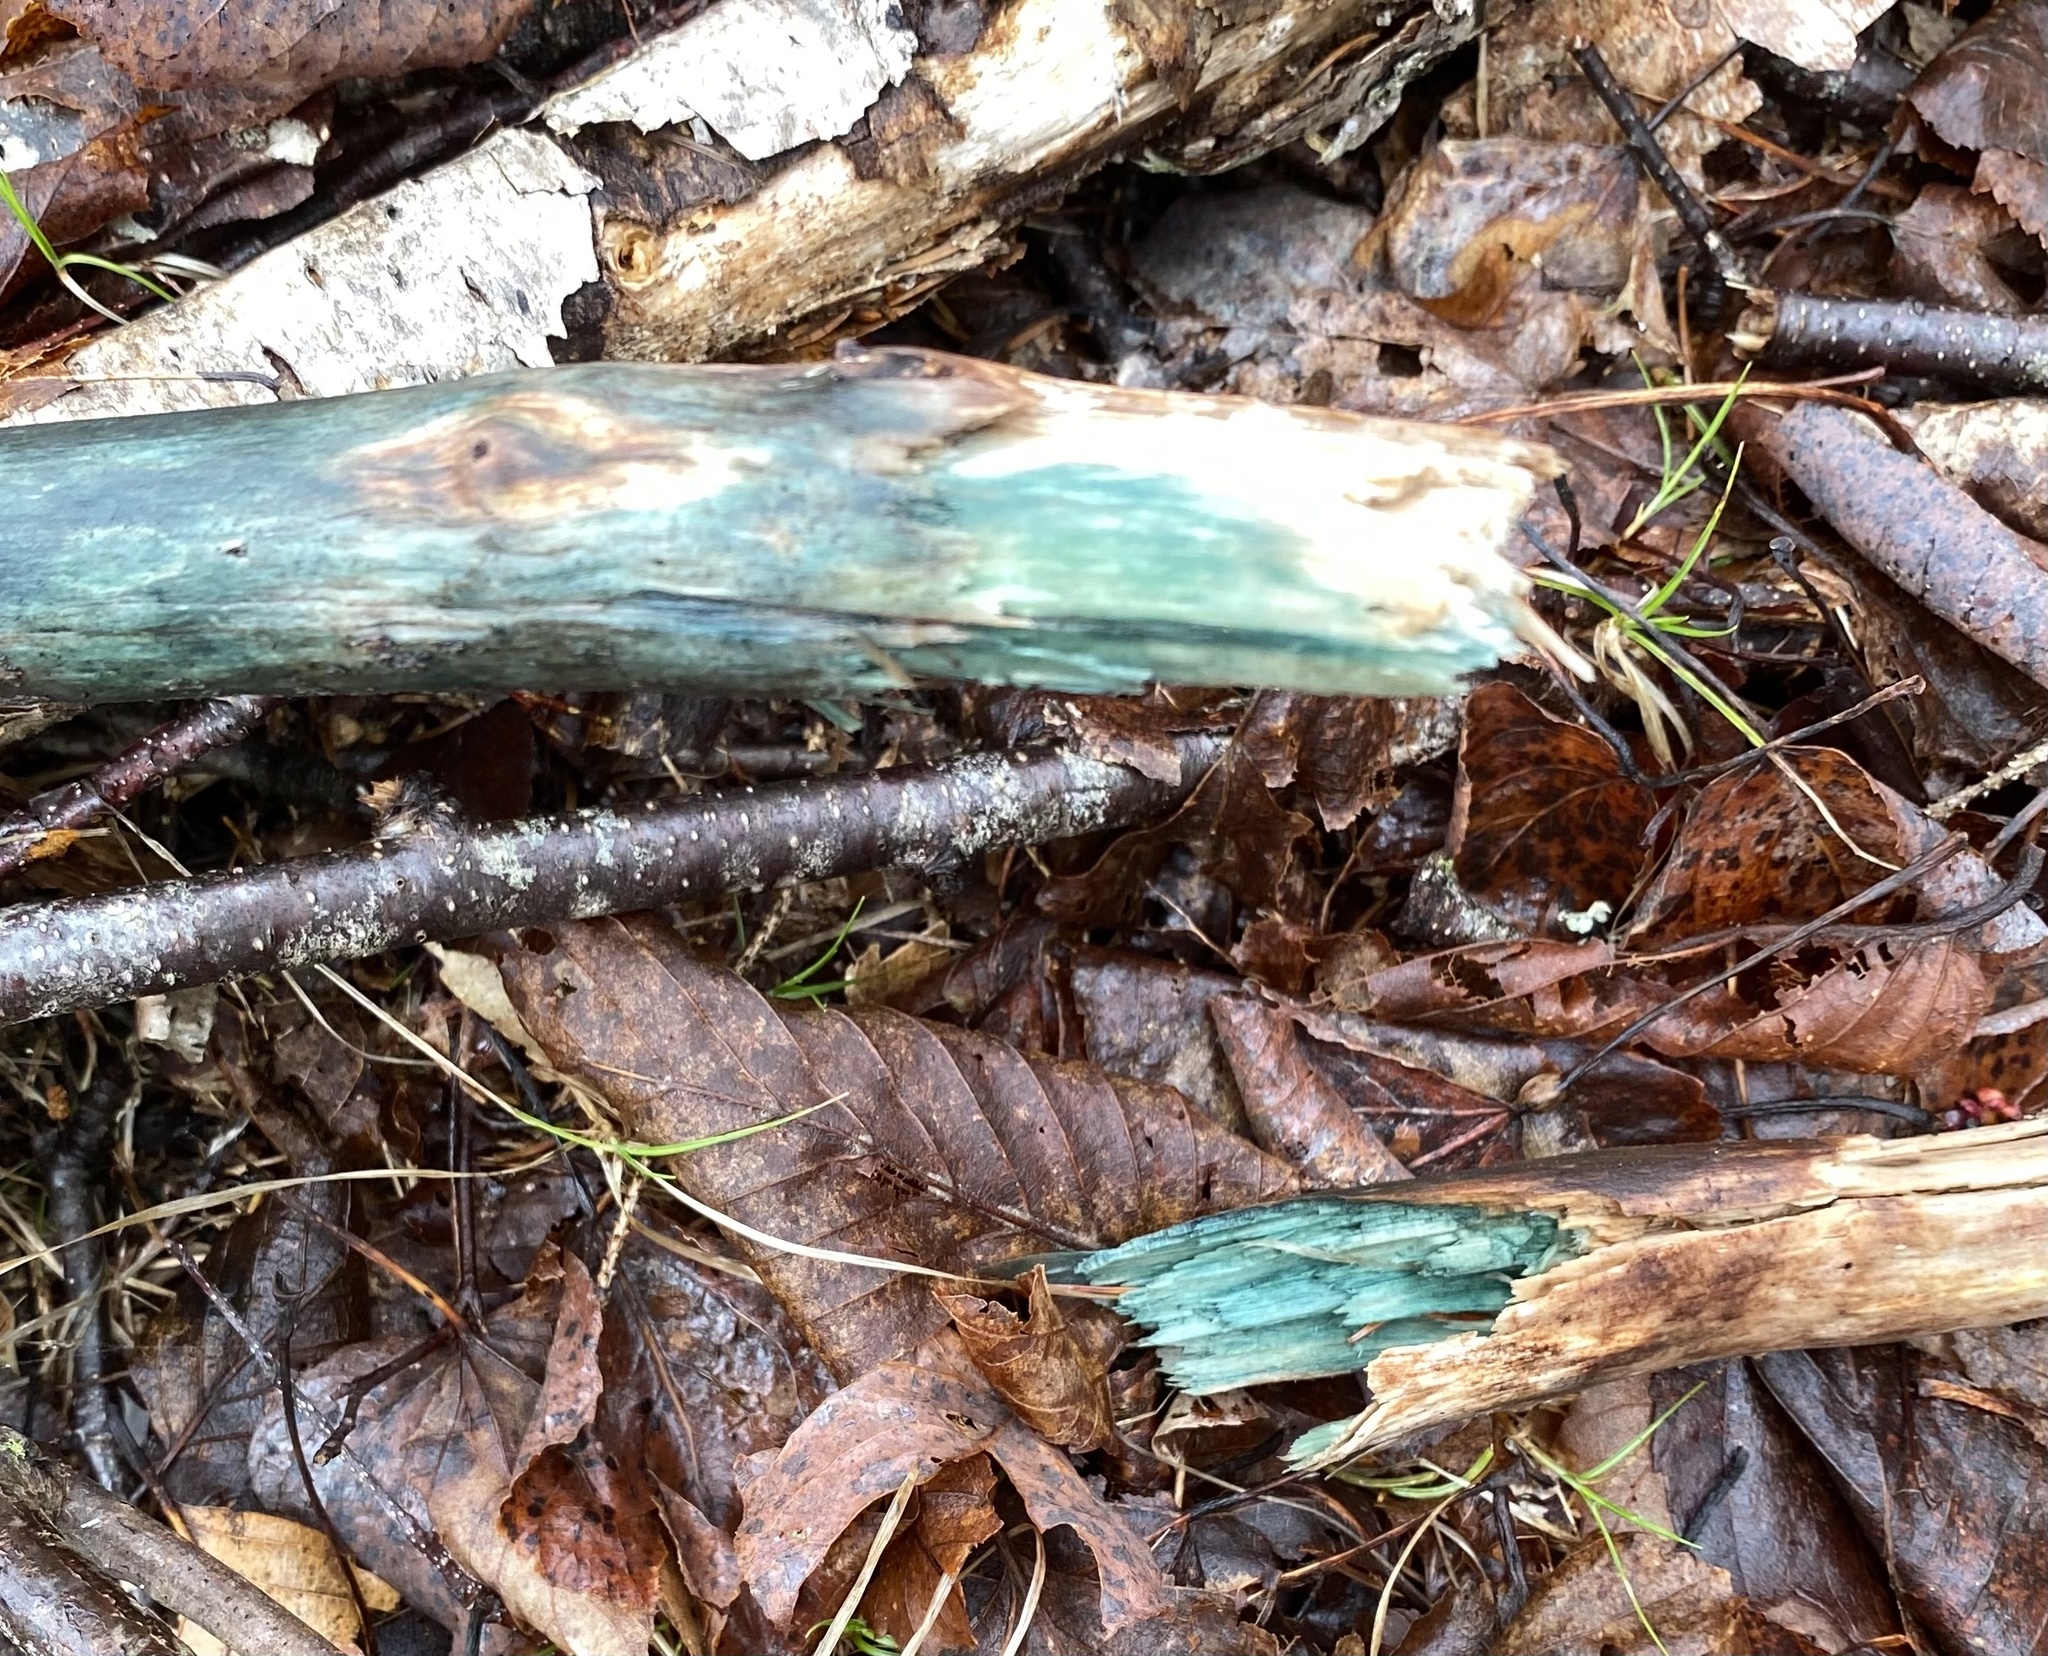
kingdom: Fungi
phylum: Ascomycota
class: Leotiomycetes
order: Helotiales
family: Chlorociboriaceae
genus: Chlorociboria
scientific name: Chlorociboria
